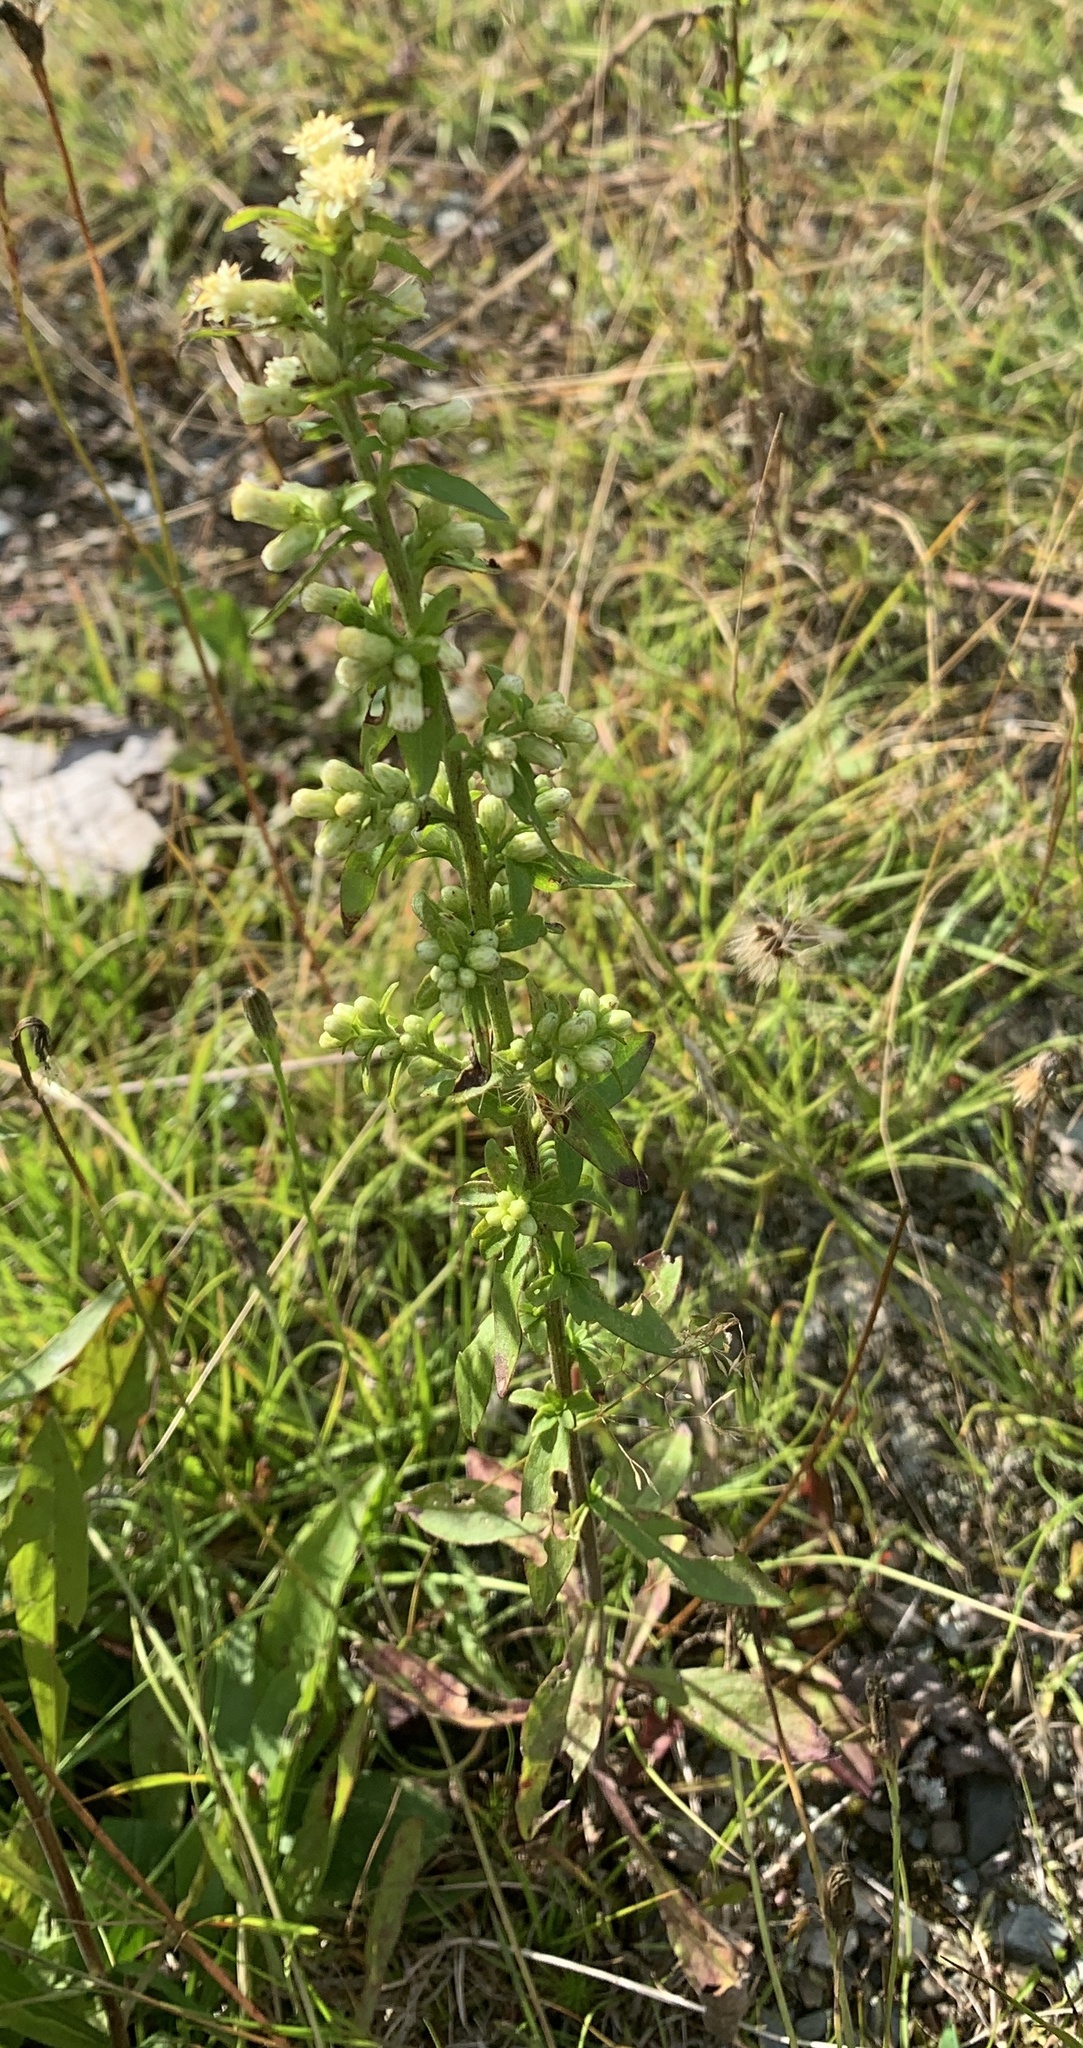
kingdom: Plantae
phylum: Tracheophyta
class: Magnoliopsida
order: Asterales
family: Asteraceae
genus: Solidago
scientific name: Solidago bicolor
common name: Silverrod
